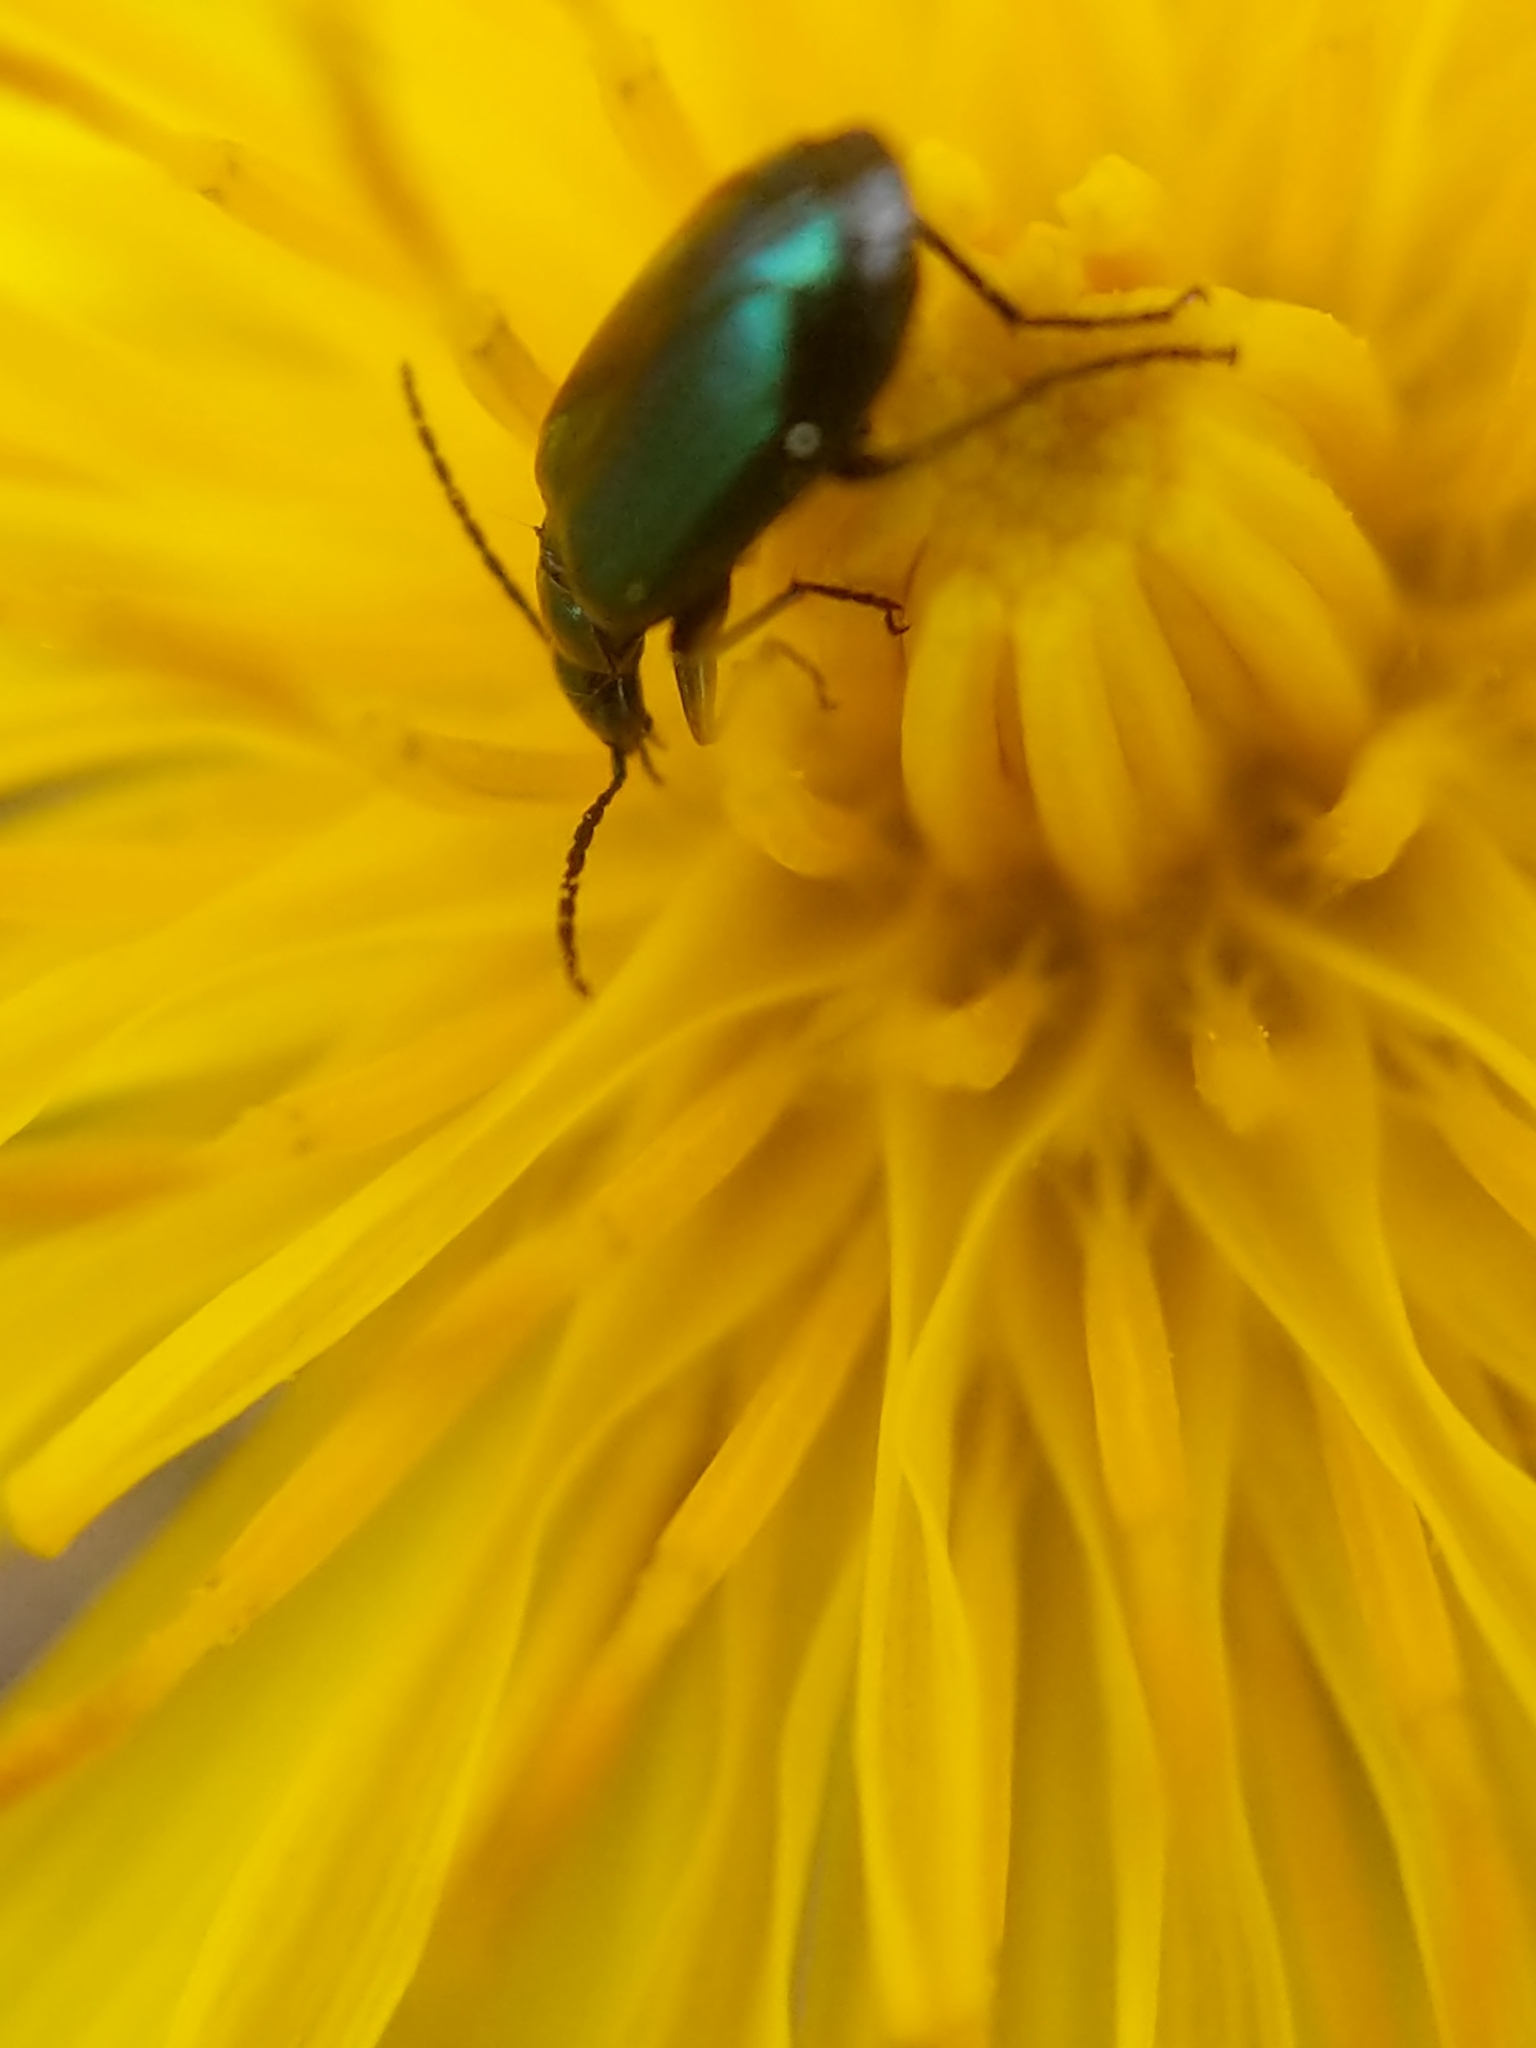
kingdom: Animalia
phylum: Arthropoda
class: Insecta
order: Coleoptera
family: Carabidae
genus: Lebia
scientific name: Lebia viridis
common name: Flower lebia beetle
